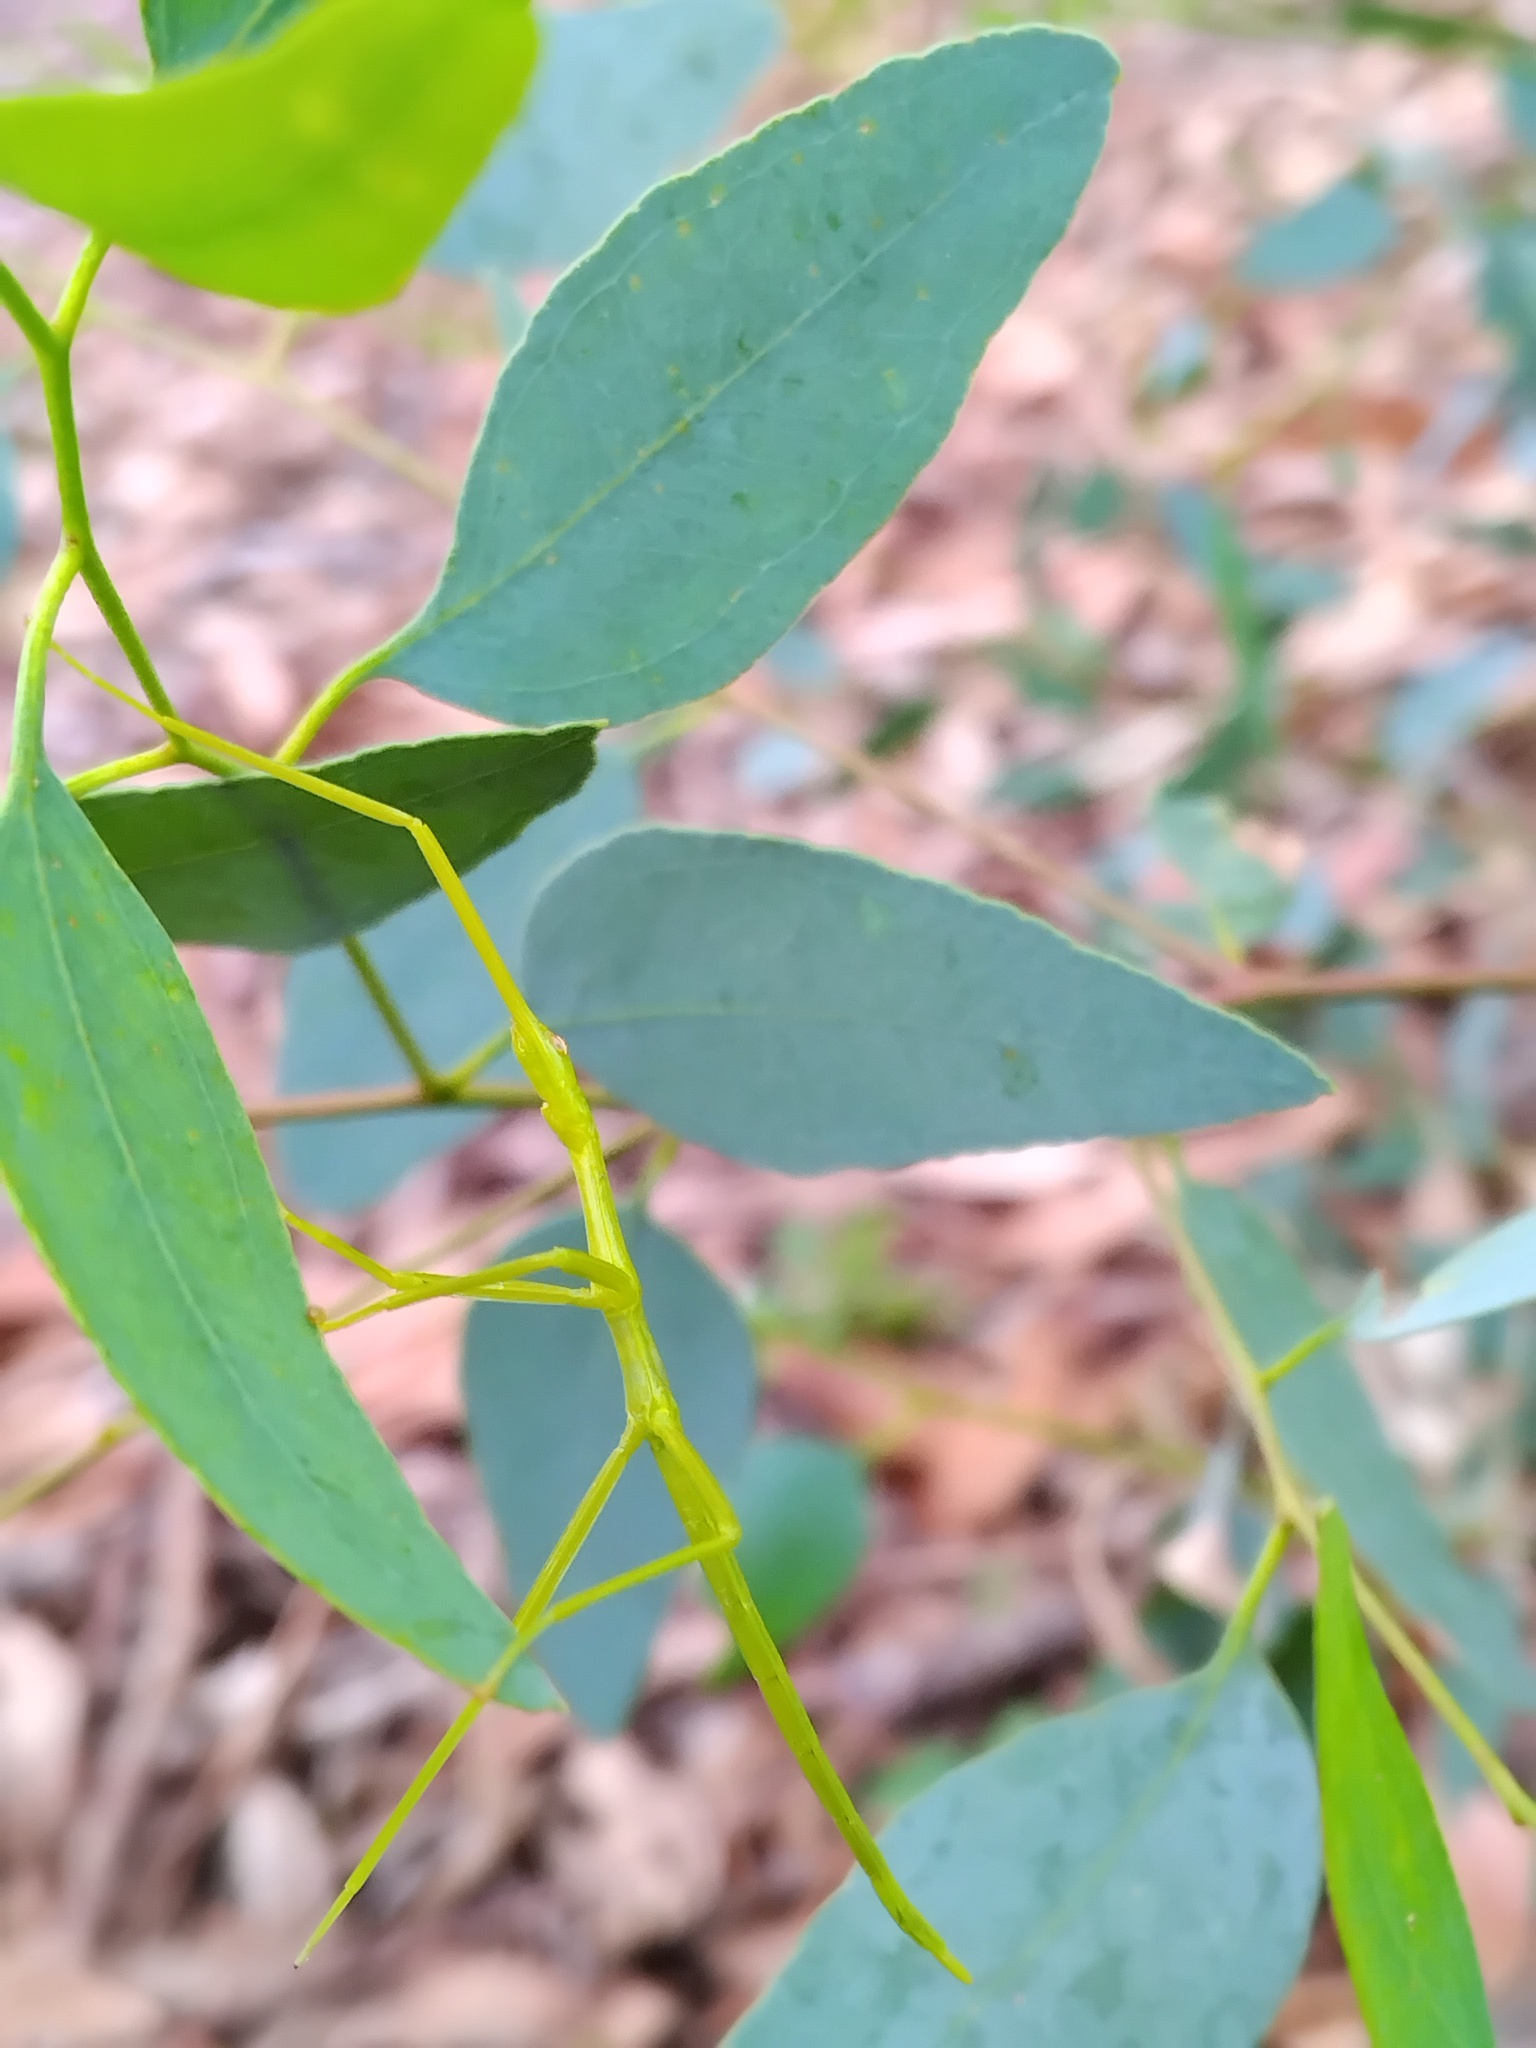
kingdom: Animalia
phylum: Arthropoda
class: Insecta
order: Phasmida
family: Phasmatidae
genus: Didymuria
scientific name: Didymuria violescens
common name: Spur-legged stick-insect
